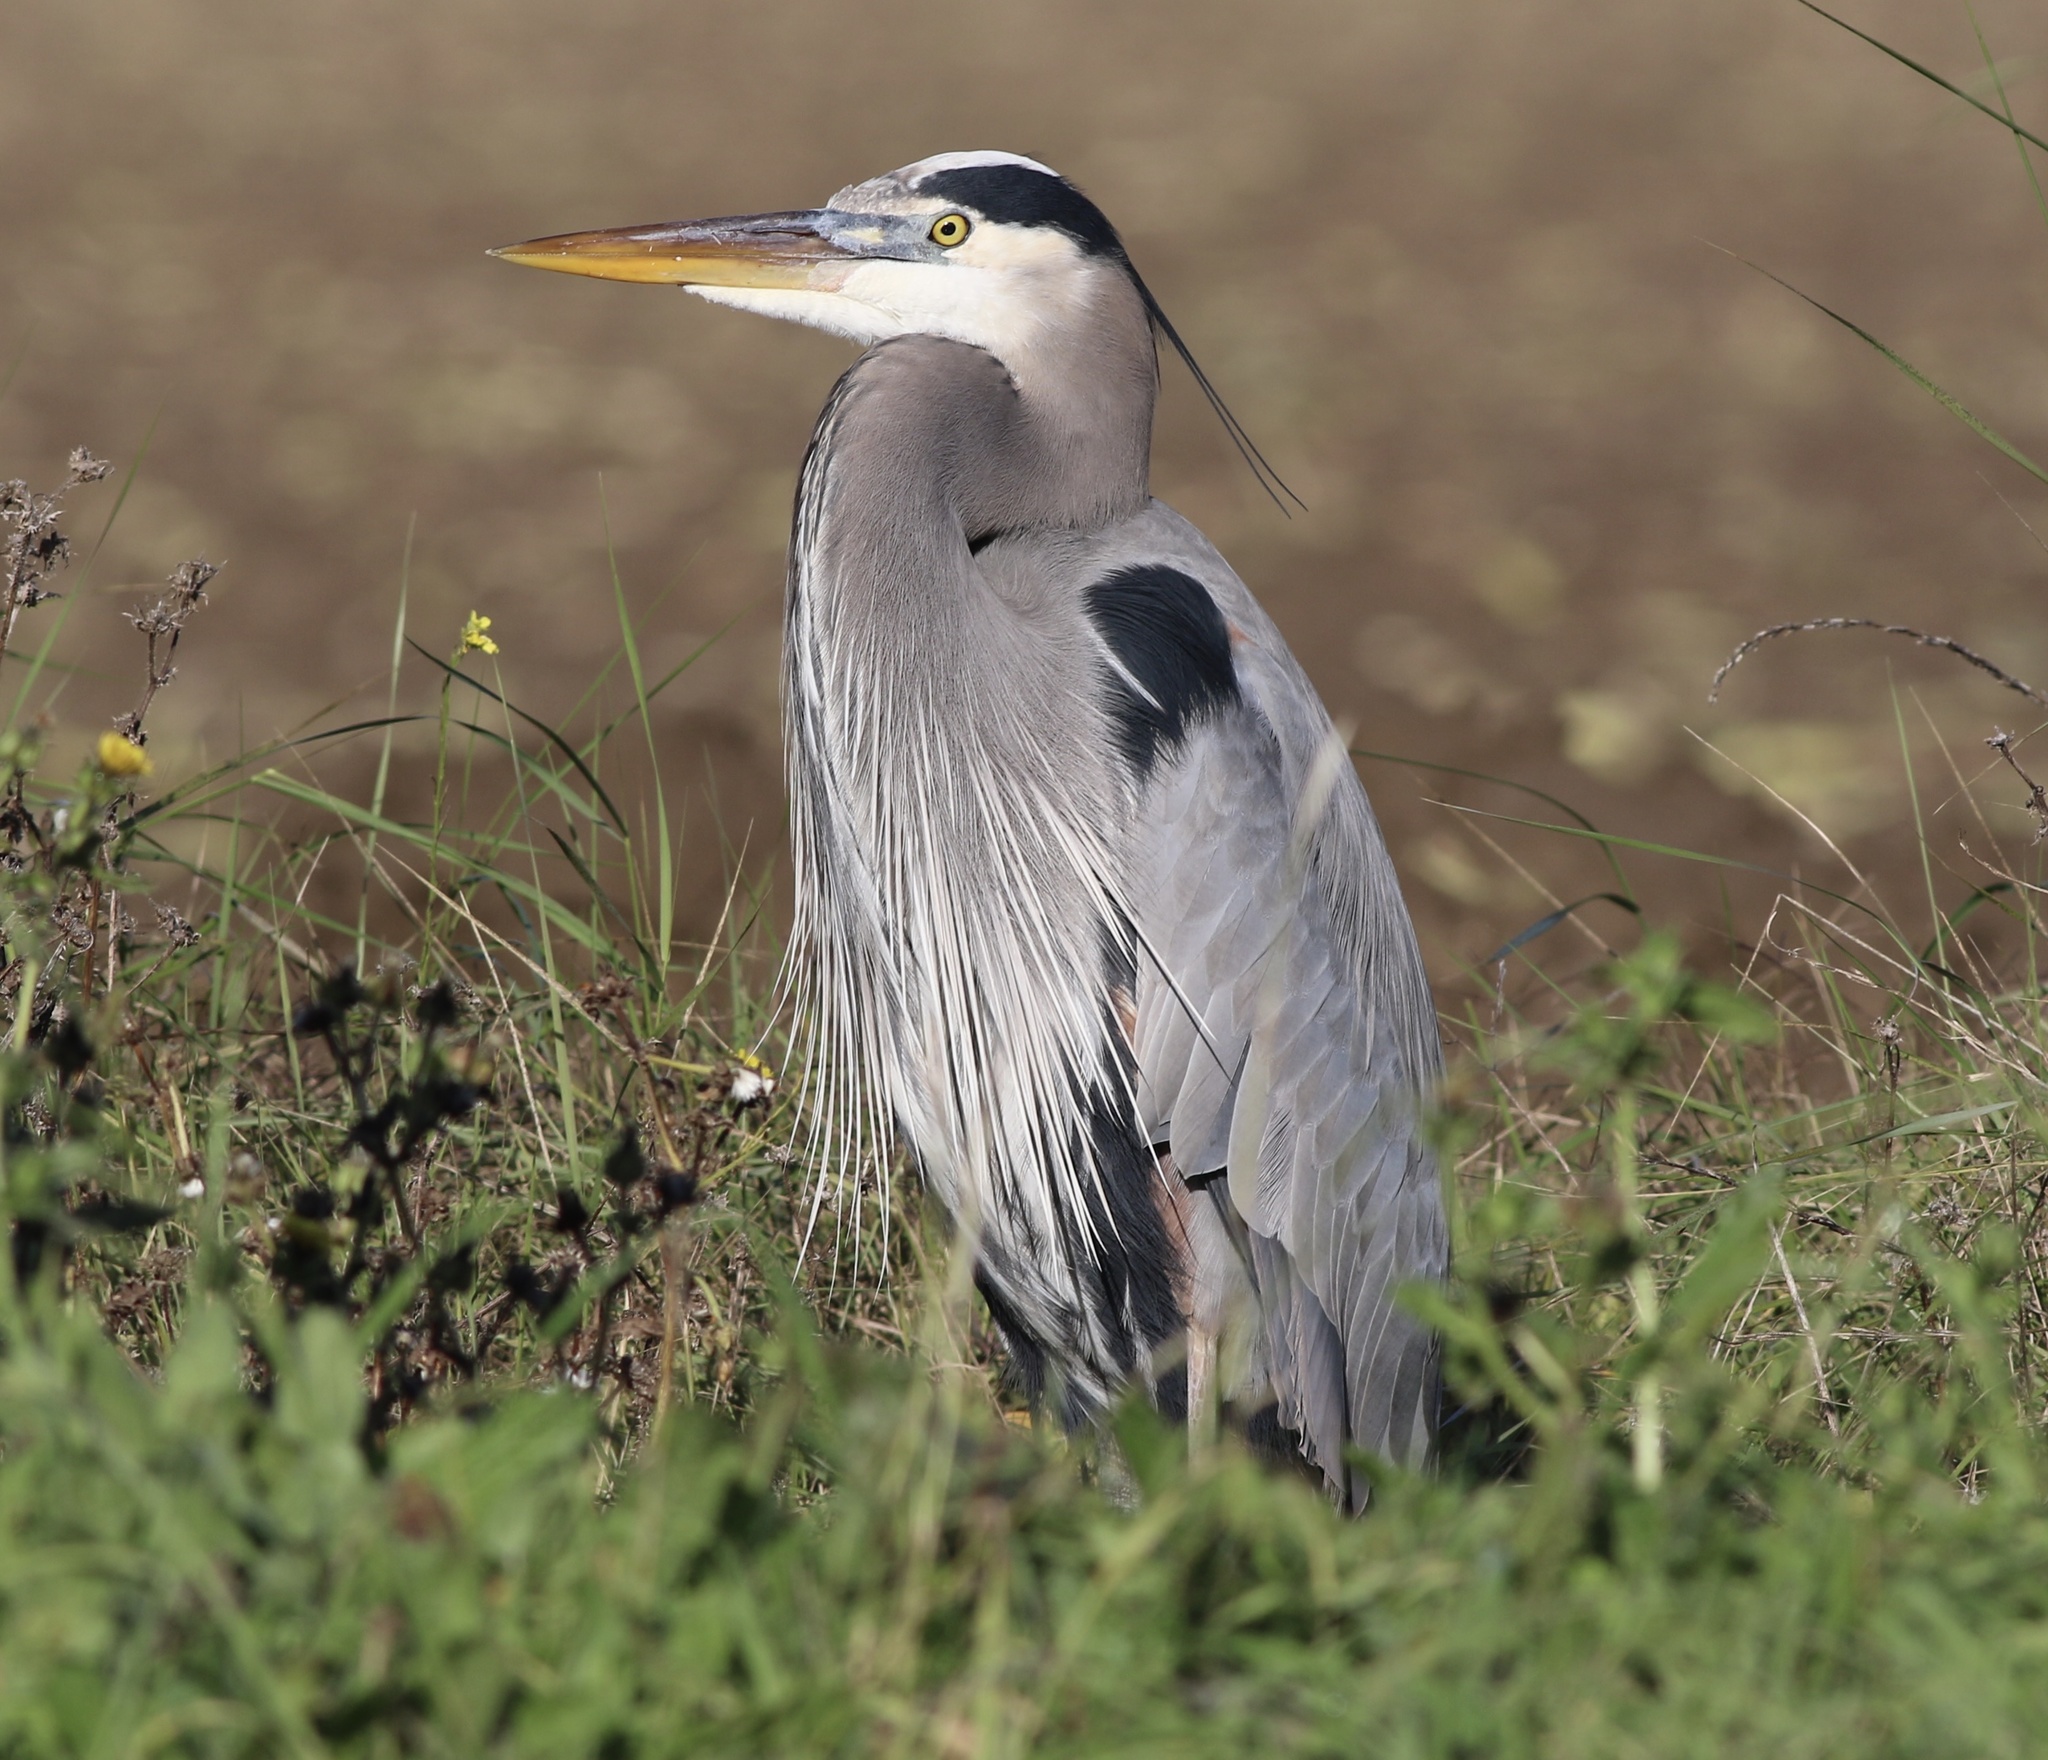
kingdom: Animalia
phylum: Chordata
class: Aves
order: Pelecaniformes
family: Ardeidae
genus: Ardea
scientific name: Ardea herodias
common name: Great blue heron
